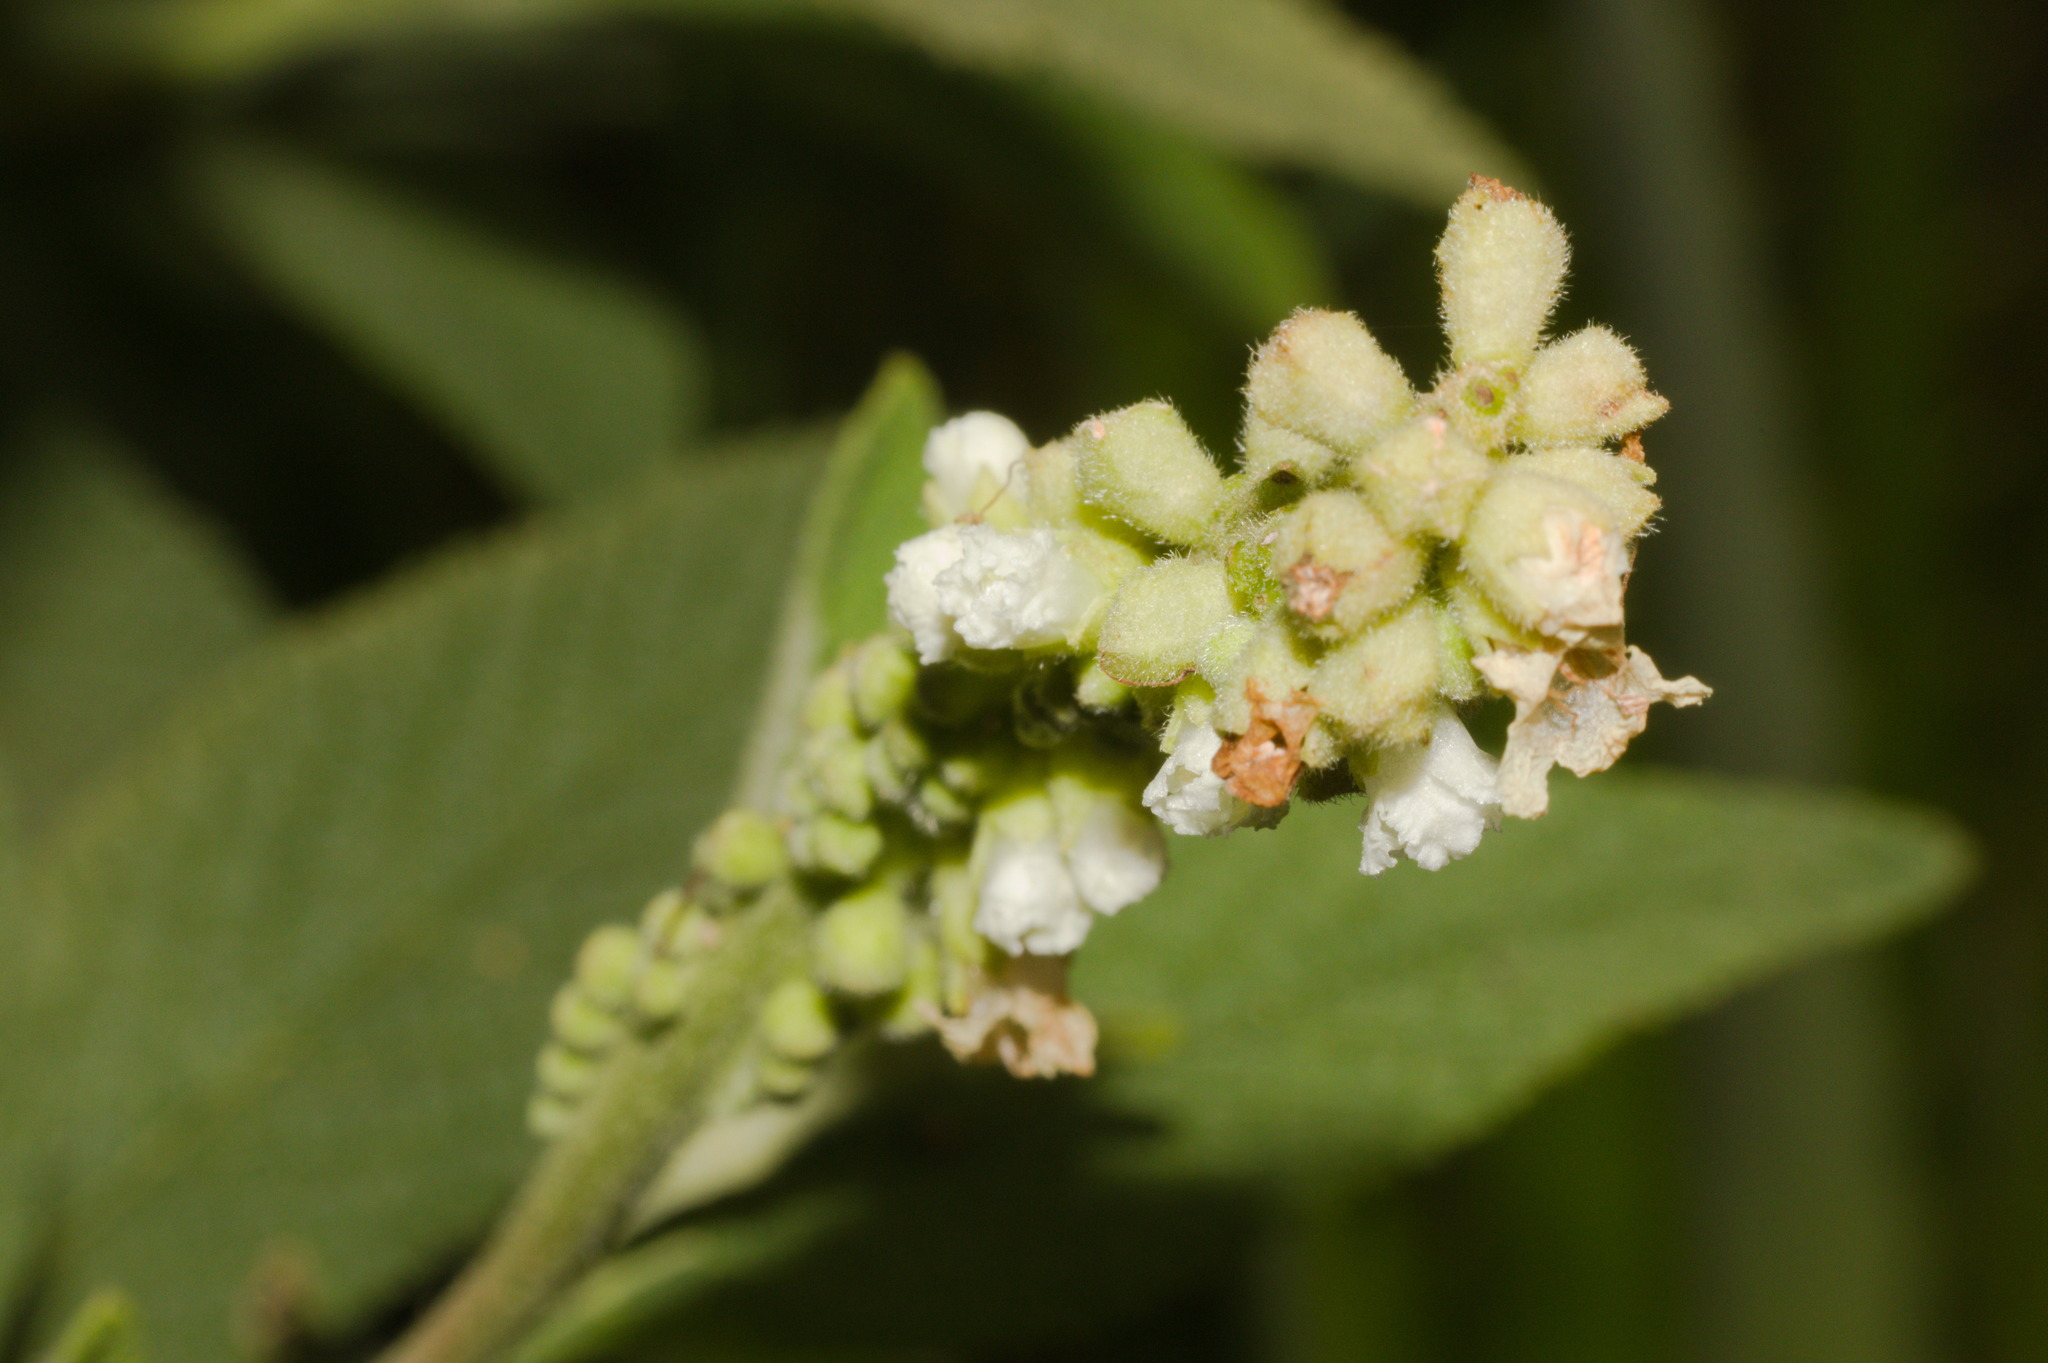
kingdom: Plantae
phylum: Tracheophyta
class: Magnoliopsida
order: Boraginales
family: Cordiaceae
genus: Varronia
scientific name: Varronia curassavica
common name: Black sage
